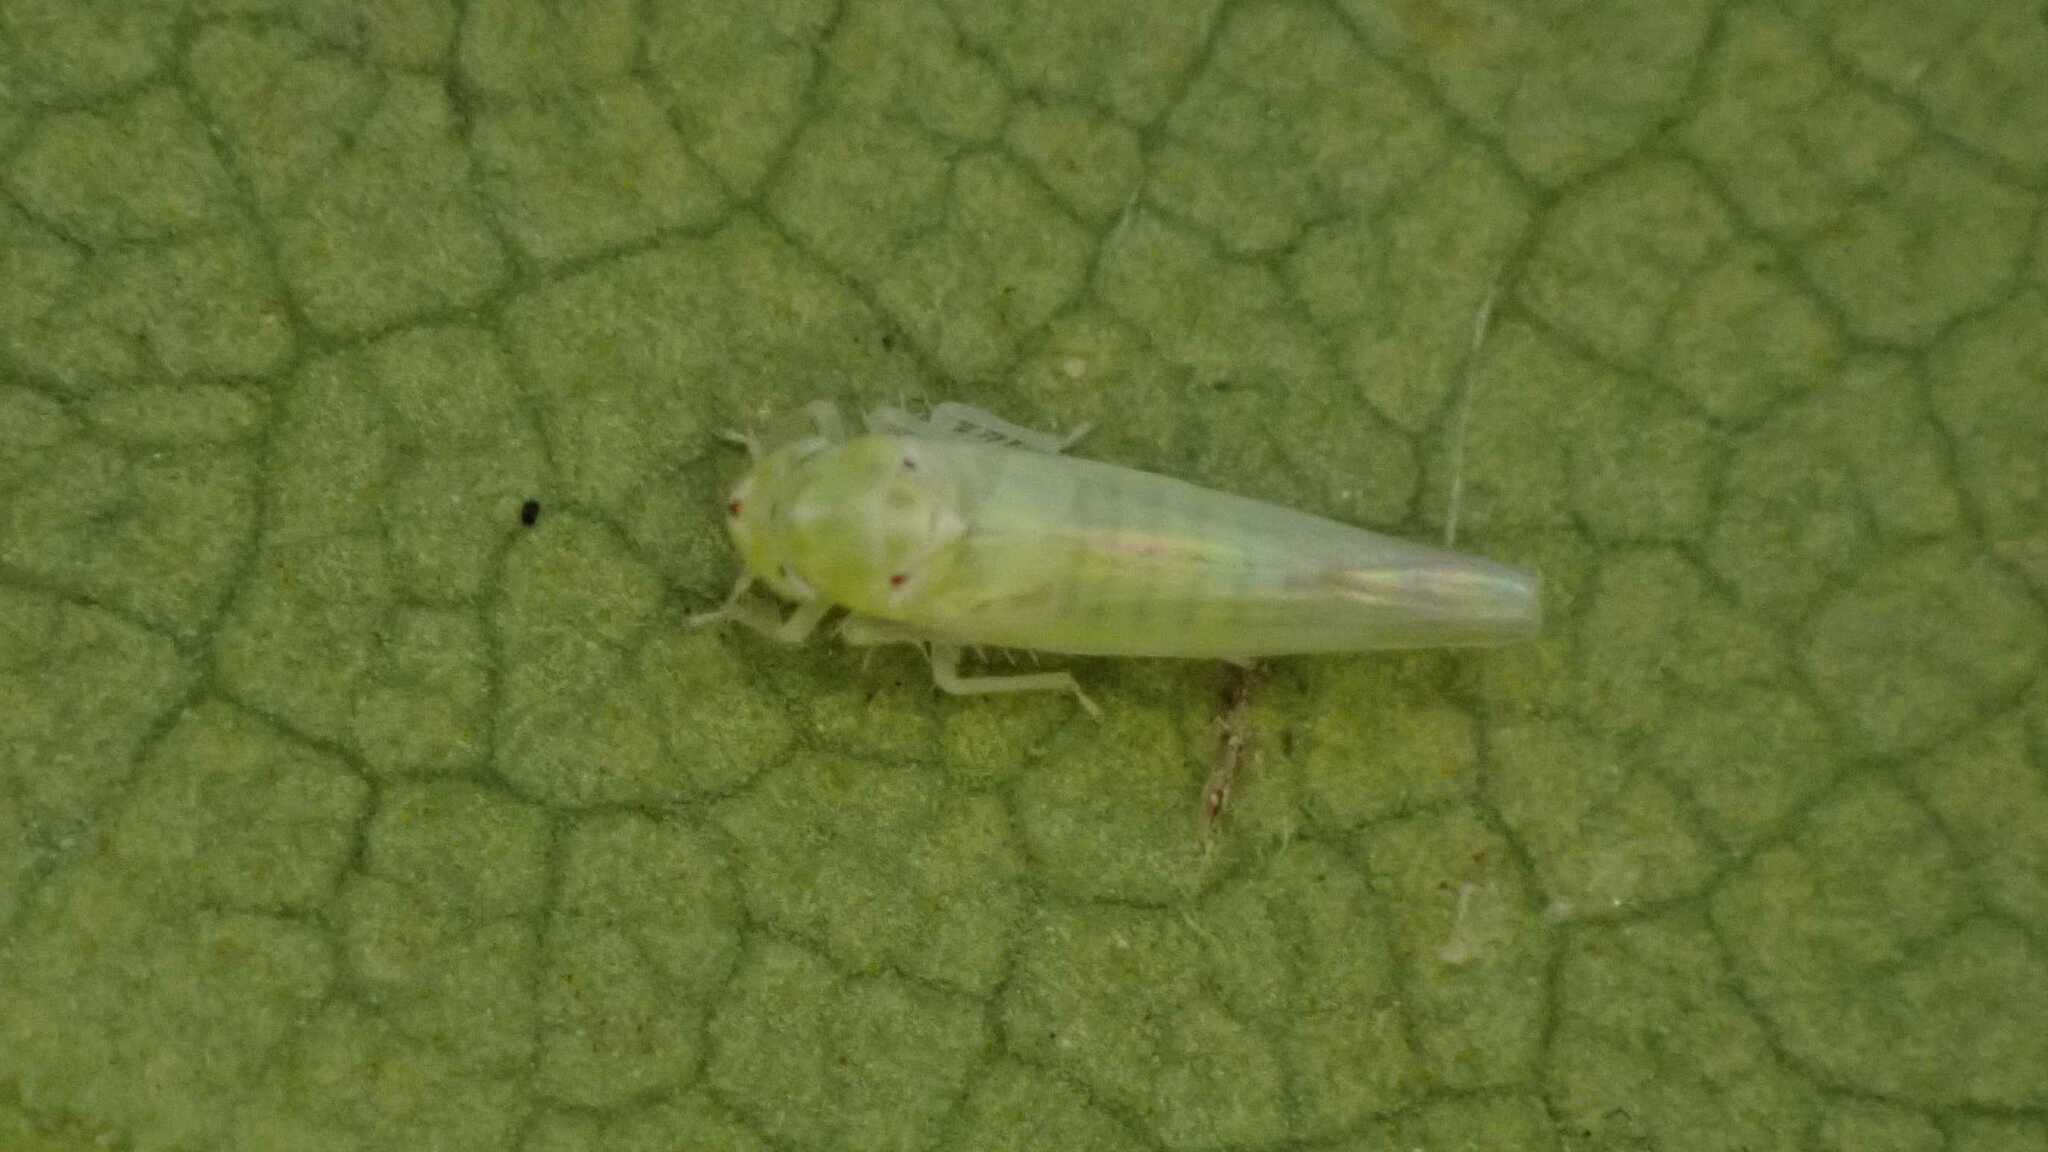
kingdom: Animalia
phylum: Arthropoda
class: Insecta
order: Hemiptera
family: Cicadellidae
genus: Zygina
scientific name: Zygina nivea
